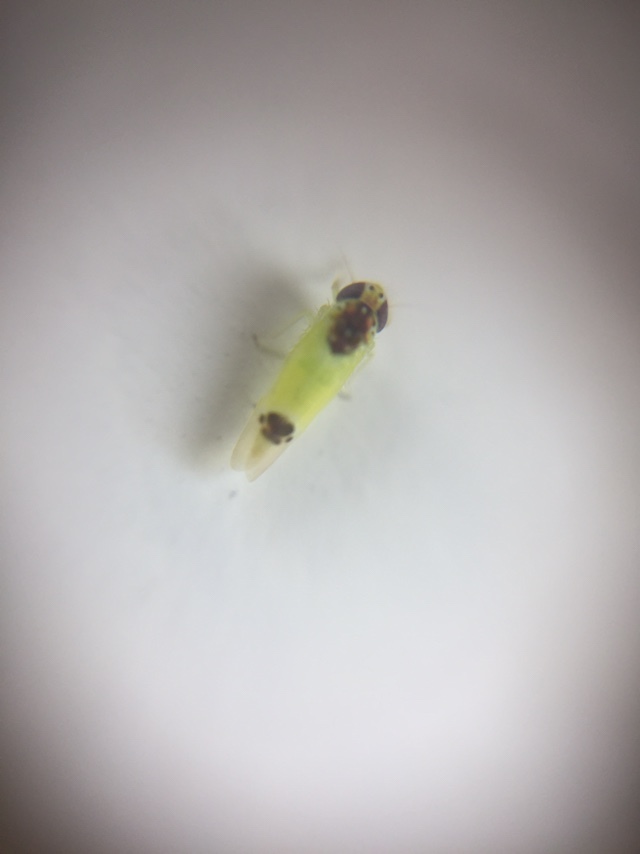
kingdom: Animalia
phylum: Arthropoda
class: Insecta
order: Hemiptera
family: Cicadellidae
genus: Amrasca
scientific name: Amrasca splendens
